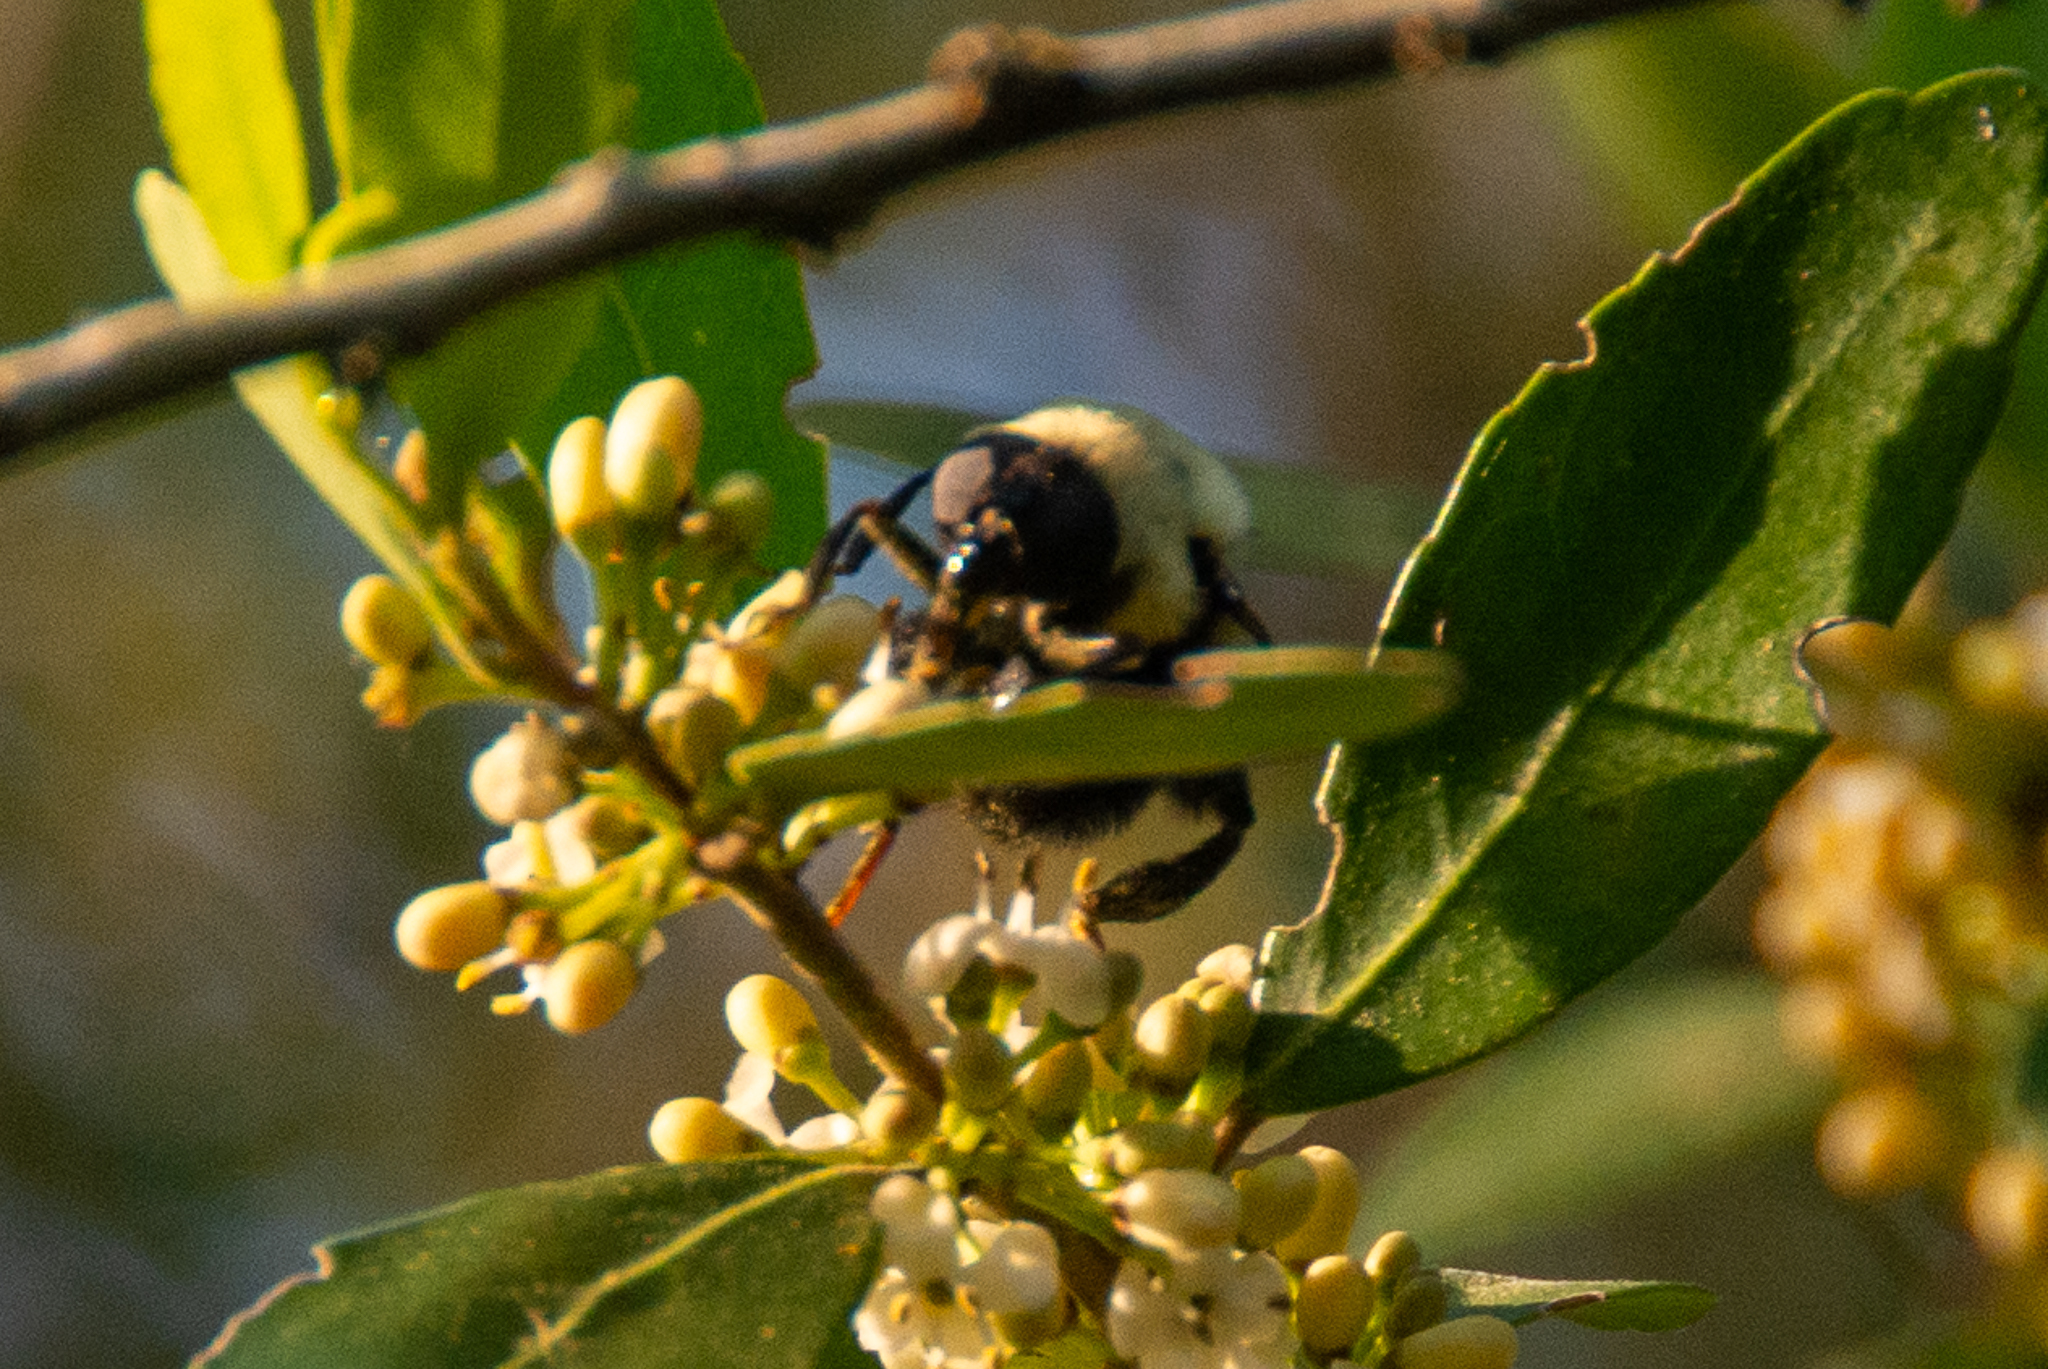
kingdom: Animalia
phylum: Arthropoda
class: Insecta
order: Hymenoptera
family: Apidae
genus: Xylocopa
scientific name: Xylocopa virginica
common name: Carpenter bee
